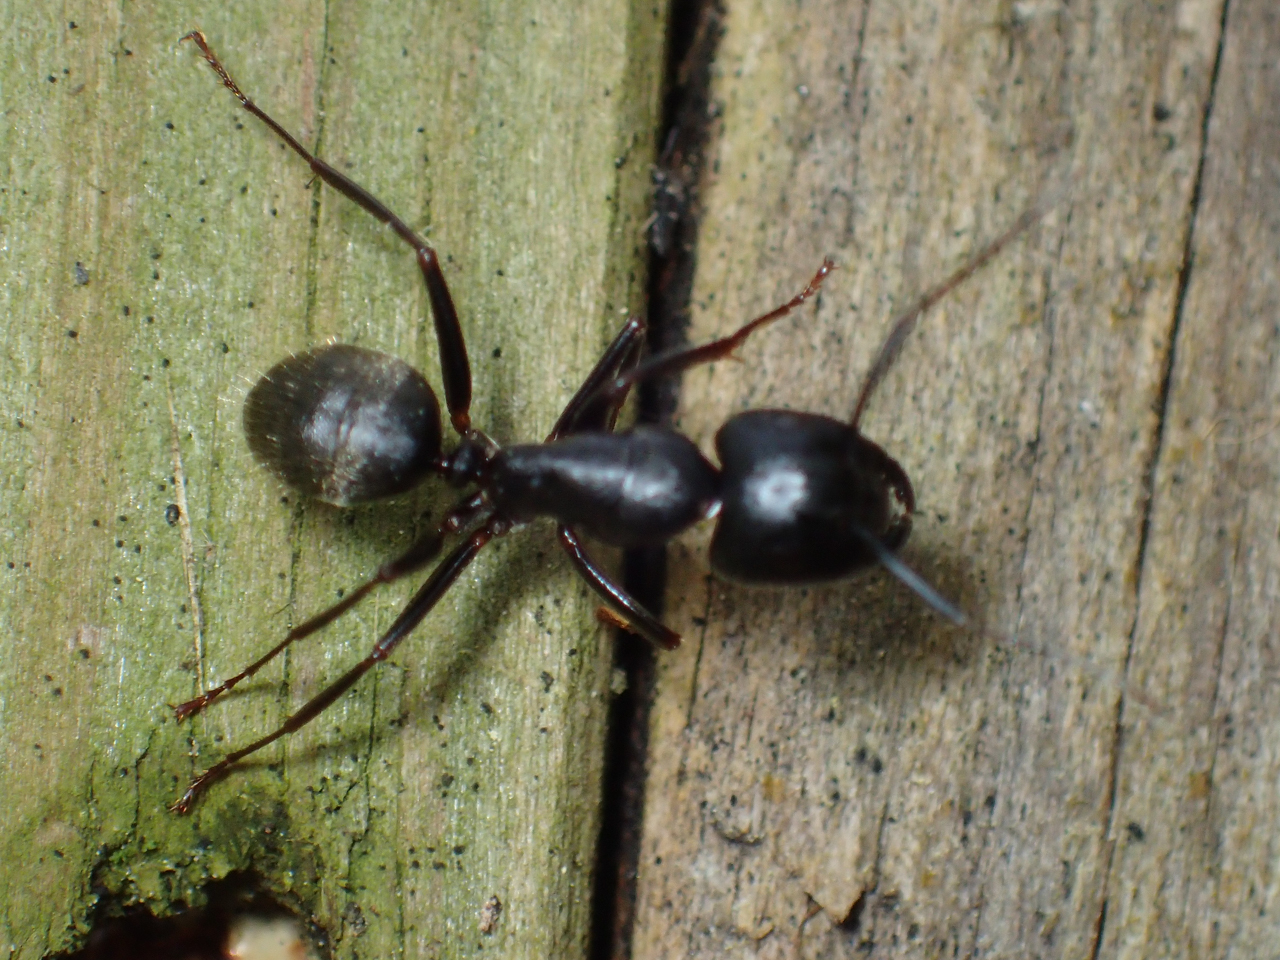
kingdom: Animalia
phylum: Arthropoda
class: Insecta
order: Hymenoptera
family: Formicidae
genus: Camponotus
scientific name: Camponotus pennsylvanicus
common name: Black carpenter ant
